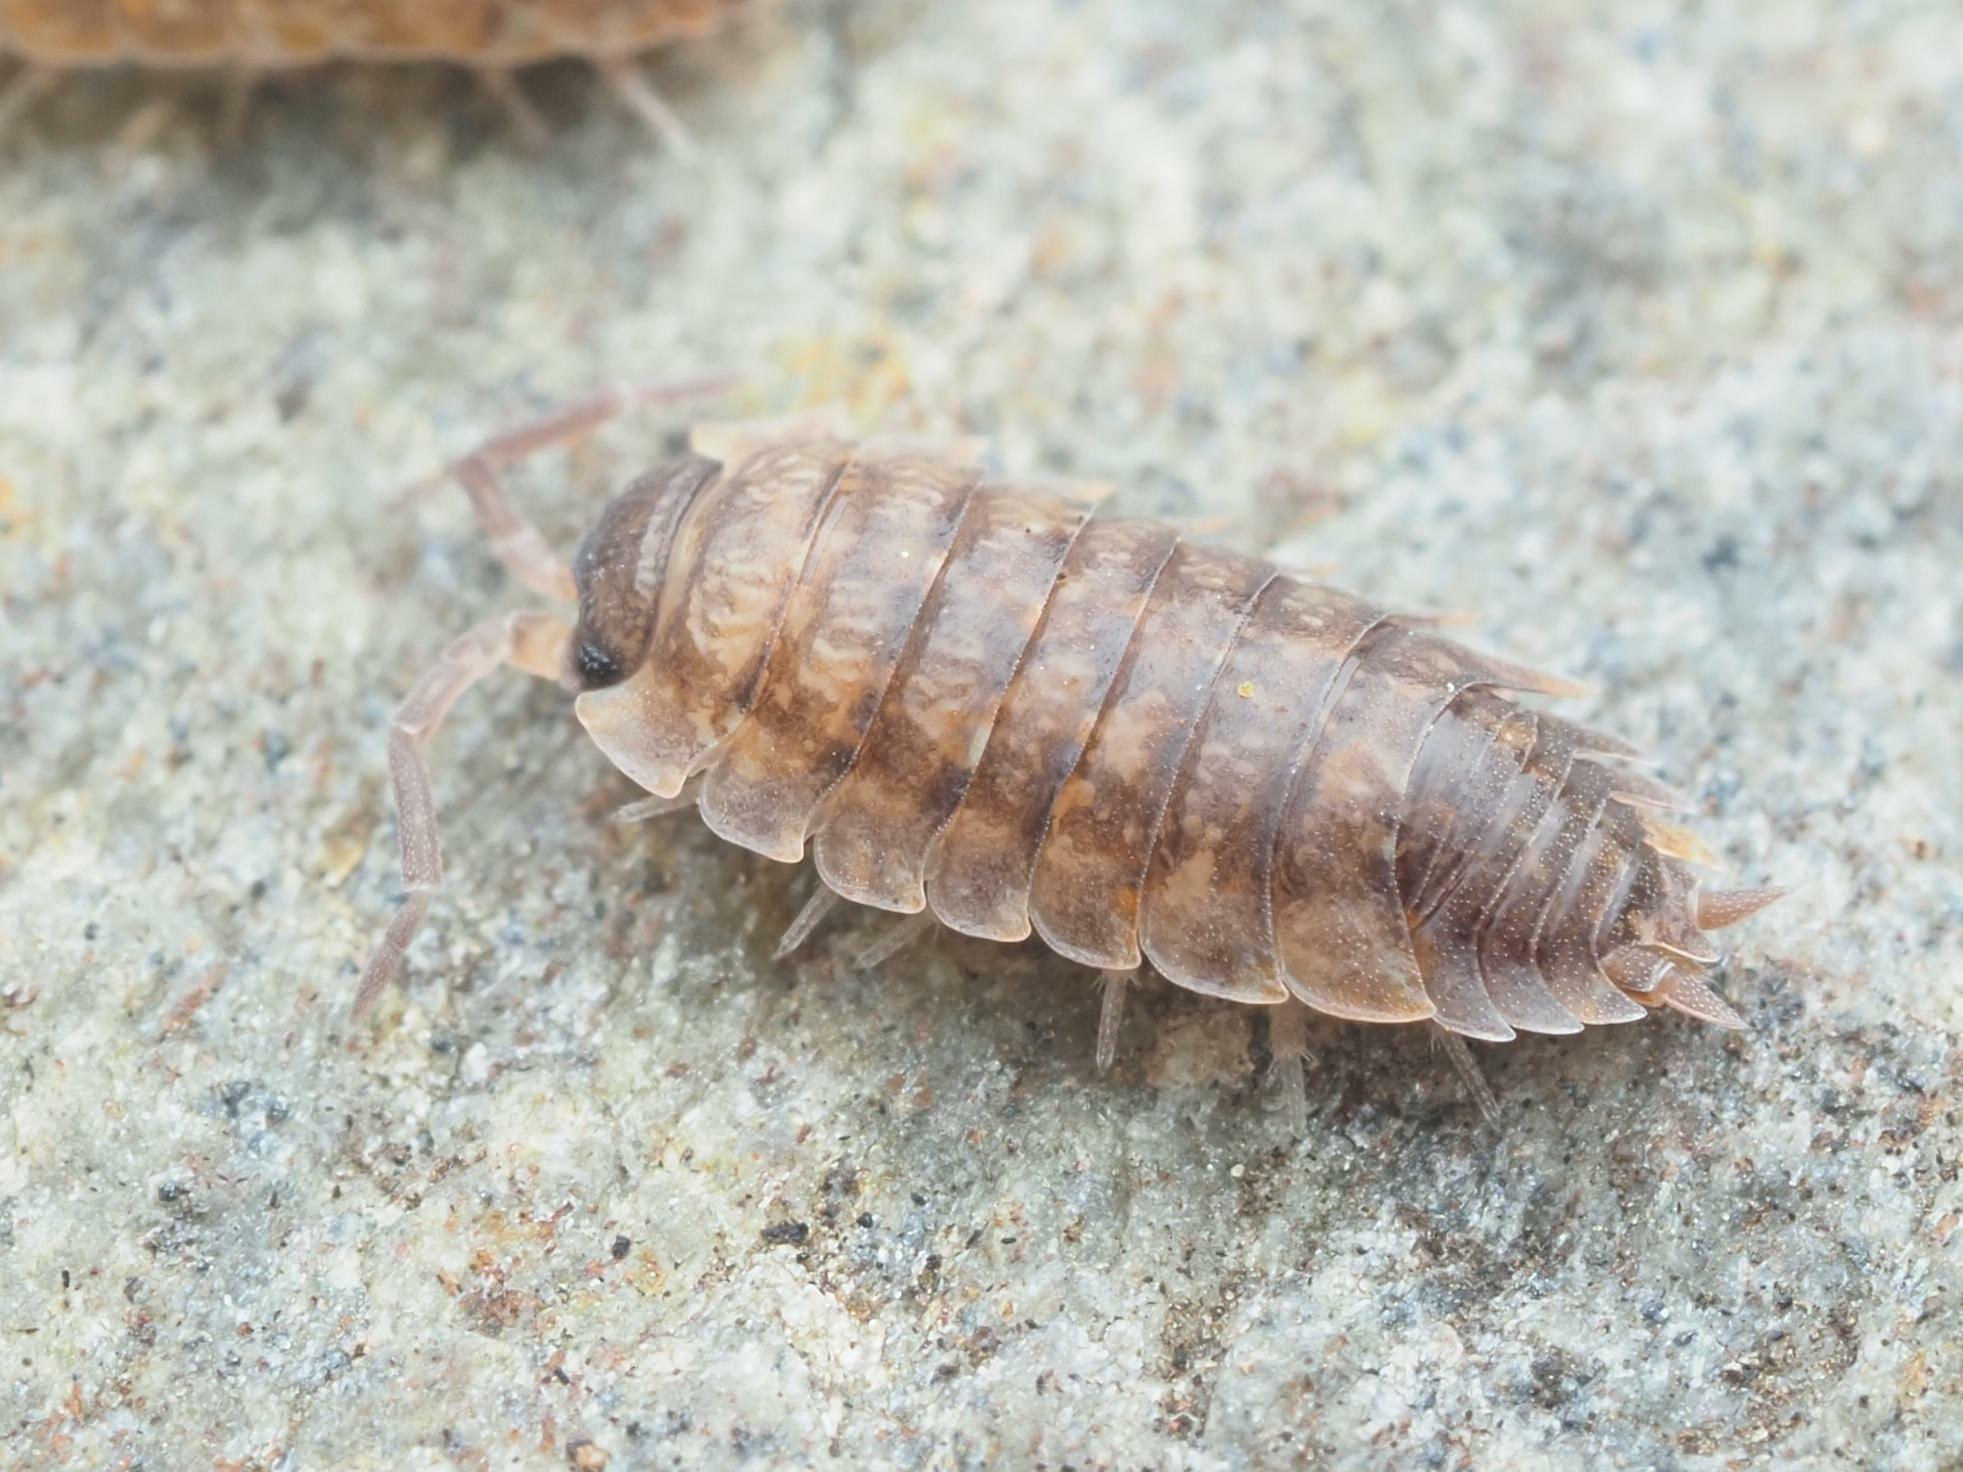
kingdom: Animalia
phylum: Arthropoda
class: Malacostraca
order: Isopoda
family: Porcellionidae
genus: Porcellio
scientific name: Porcellio scaber
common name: Common rough woodlouse
